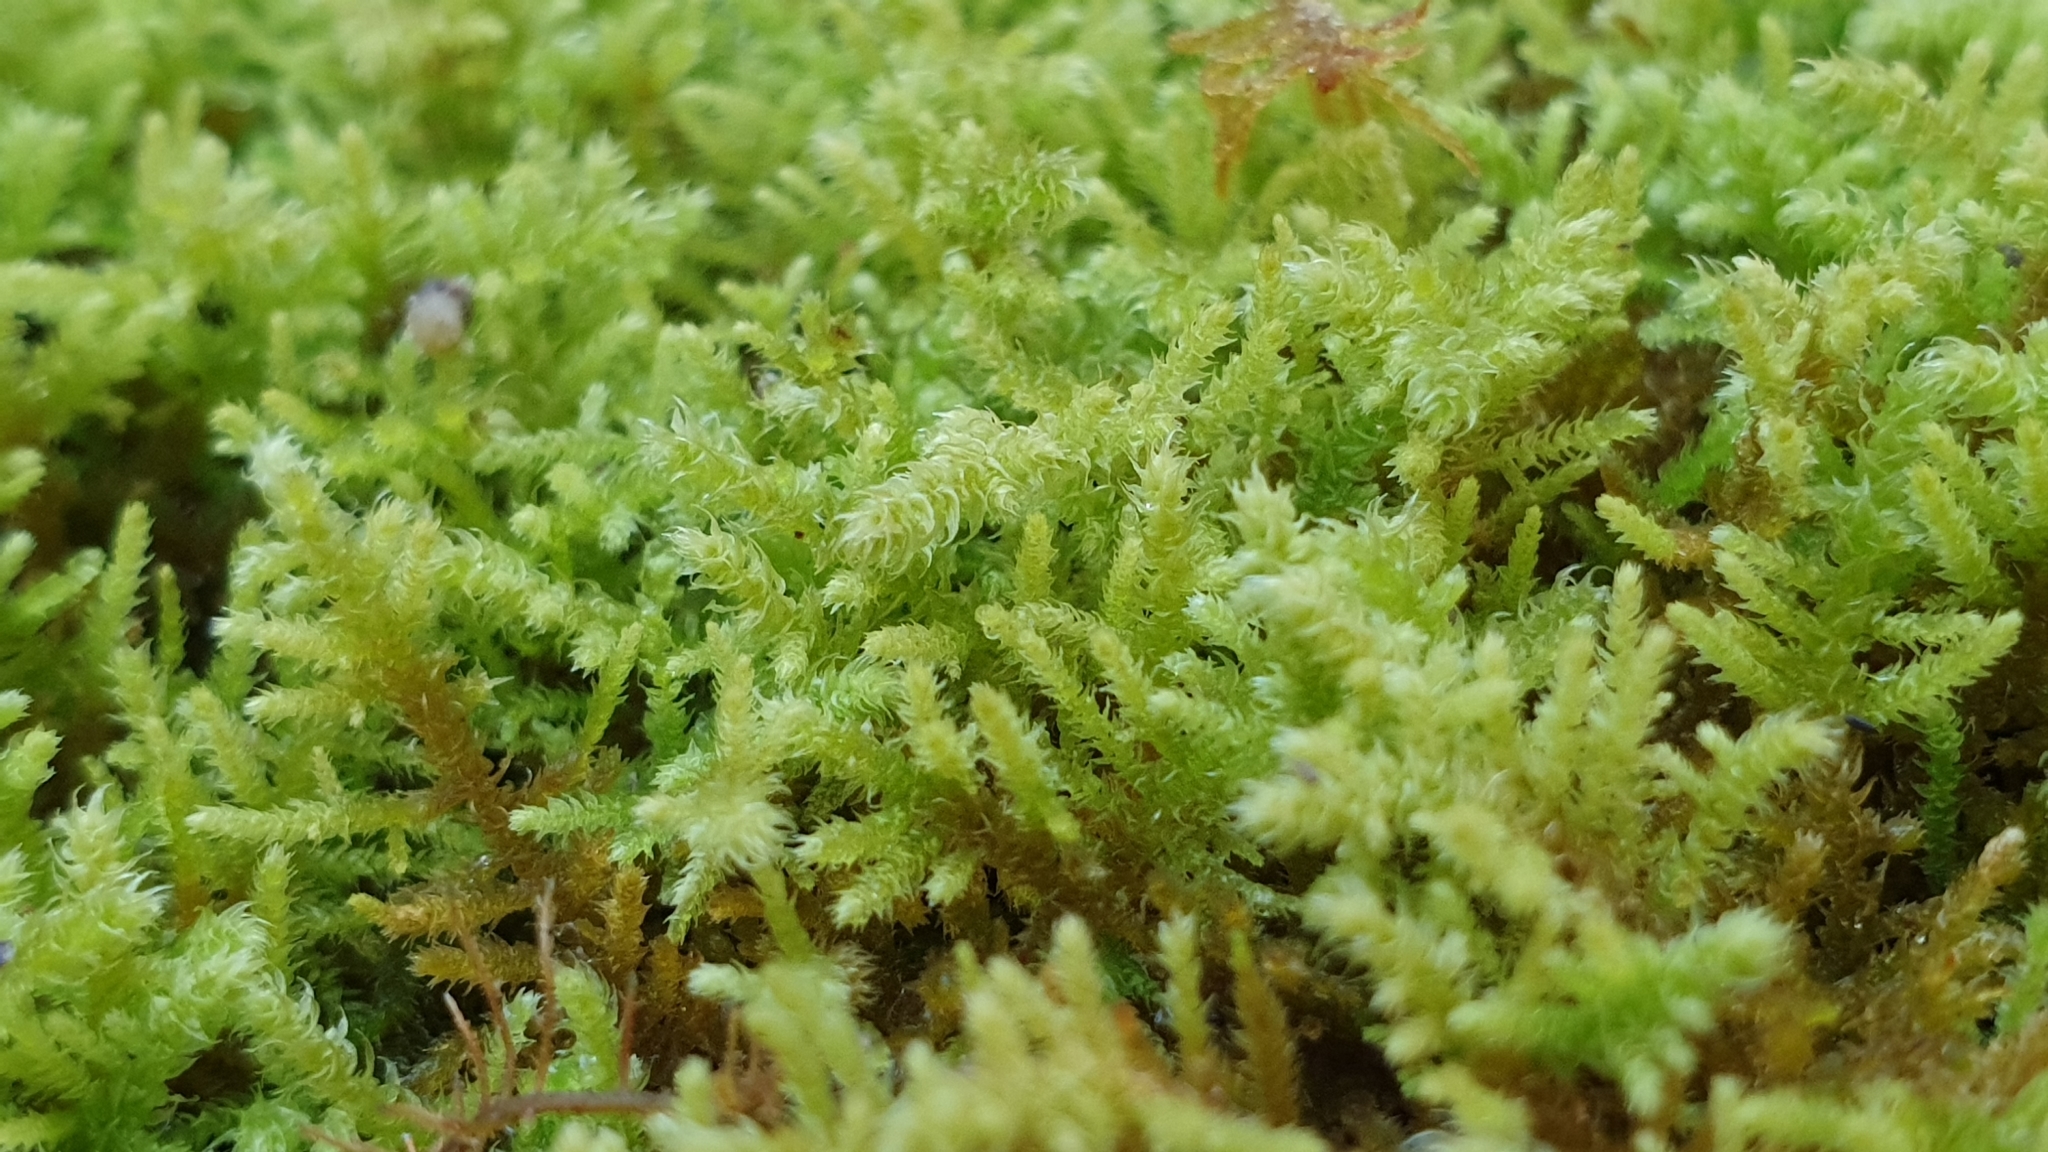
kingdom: Plantae
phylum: Bryophyta
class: Bryopsida
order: Hypnales
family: Thuidiaceae
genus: Thuidiopsis
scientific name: Thuidiopsis sparsa
